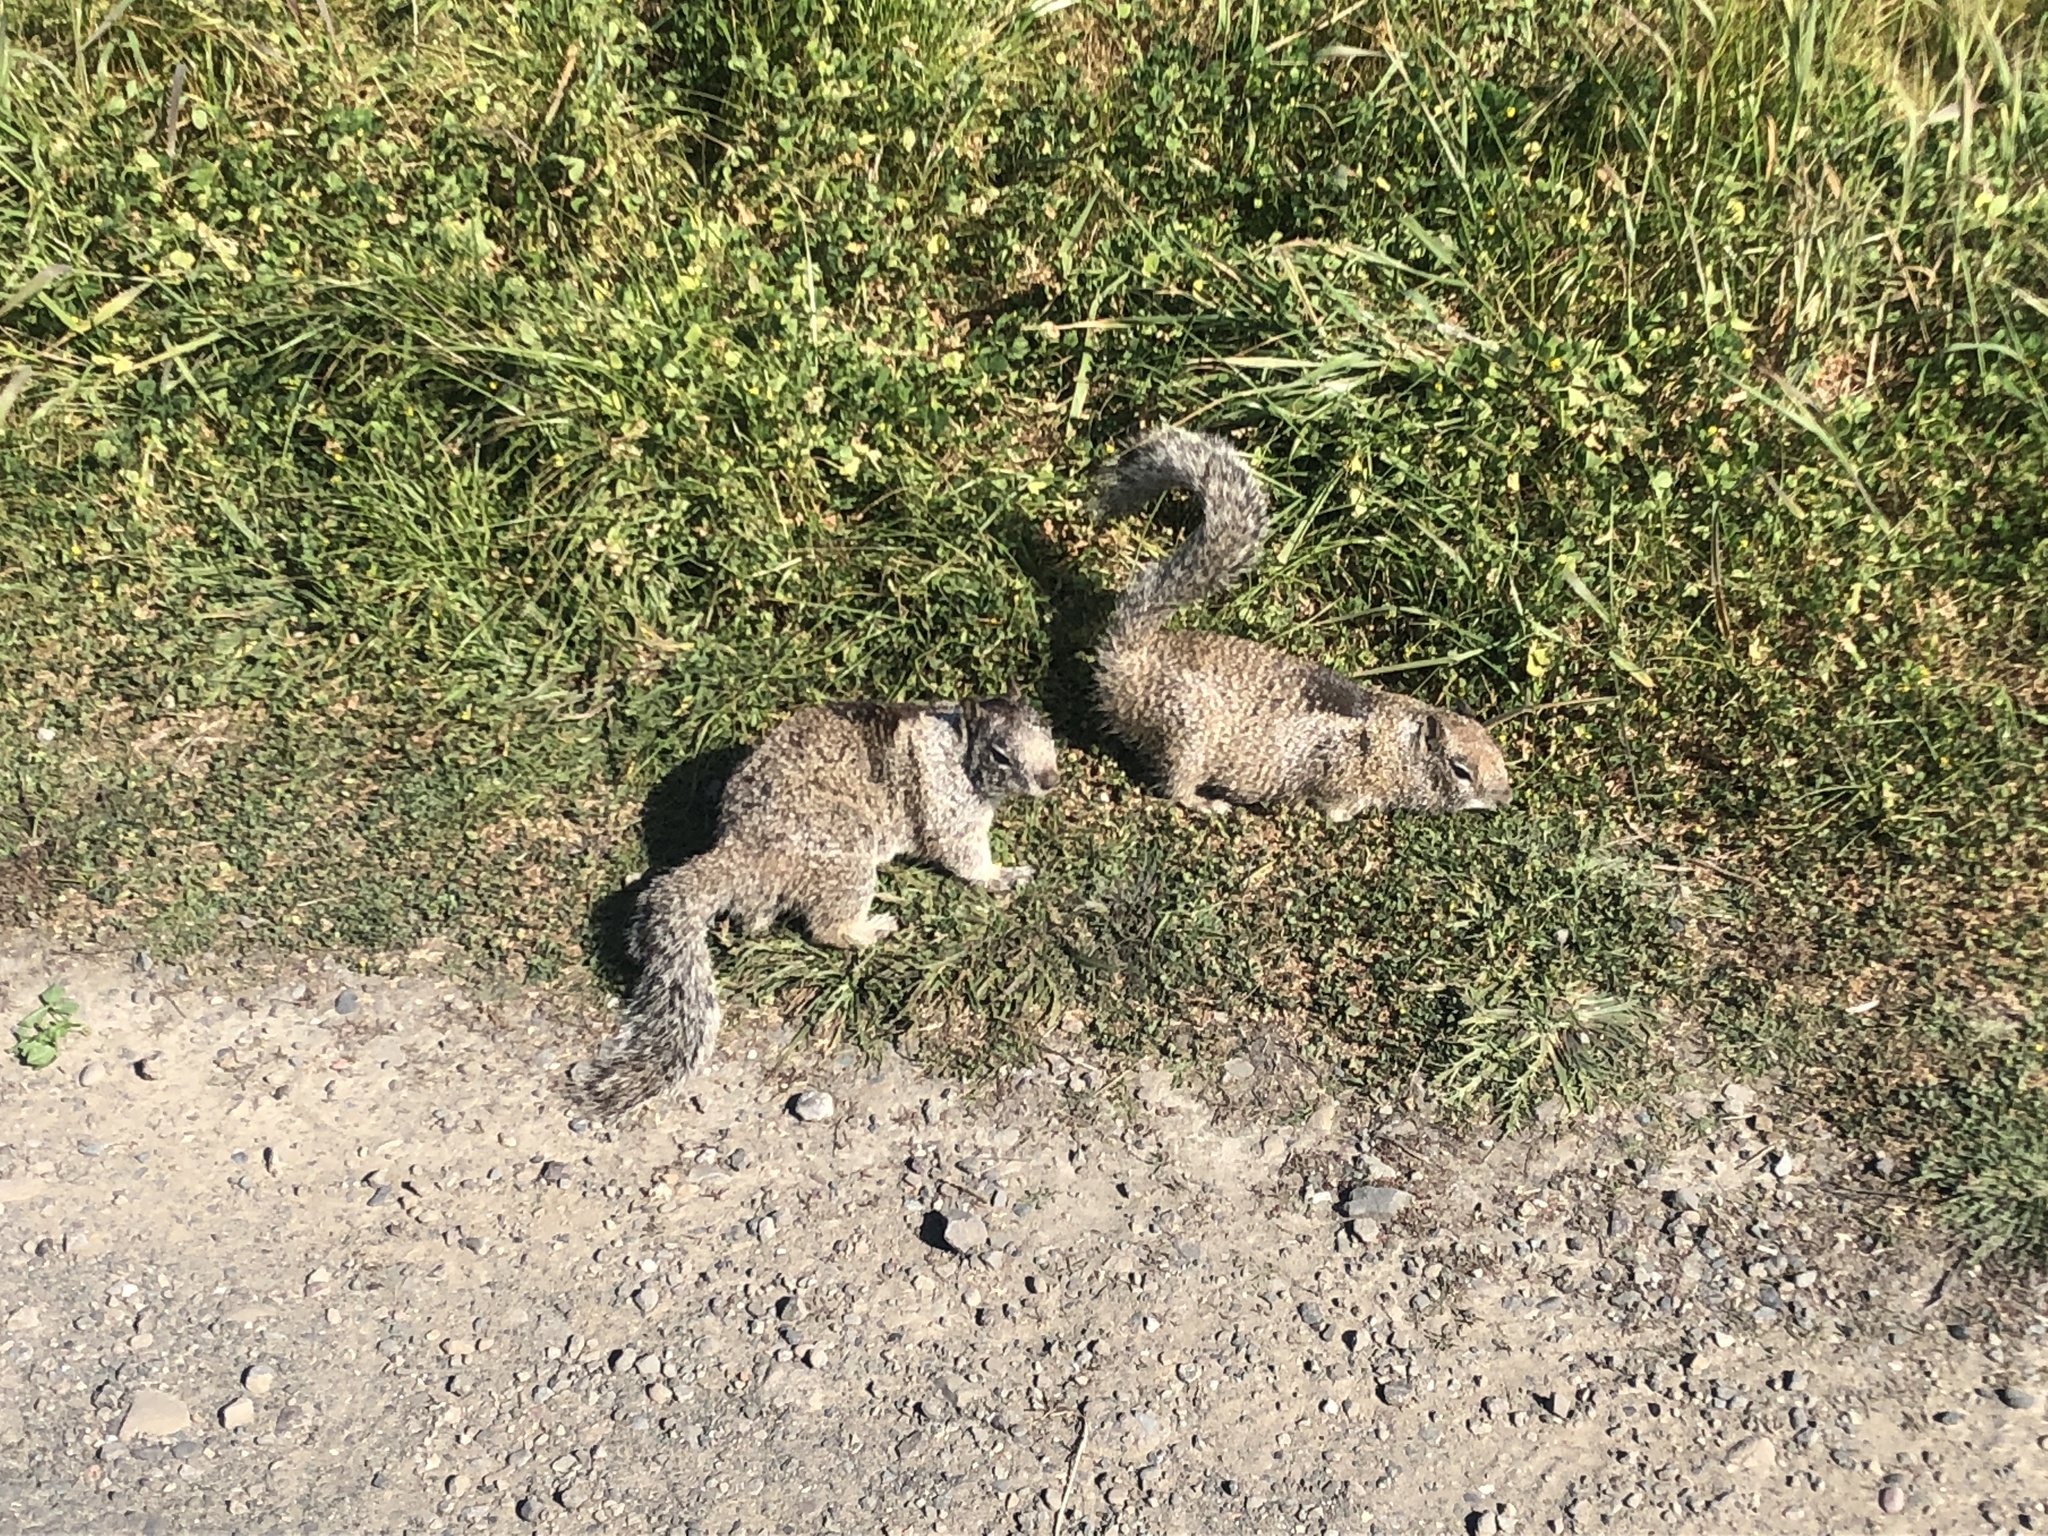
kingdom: Animalia
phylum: Chordata
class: Mammalia
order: Rodentia
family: Sciuridae
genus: Otospermophilus
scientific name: Otospermophilus beecheyi
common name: California ground squirrel
